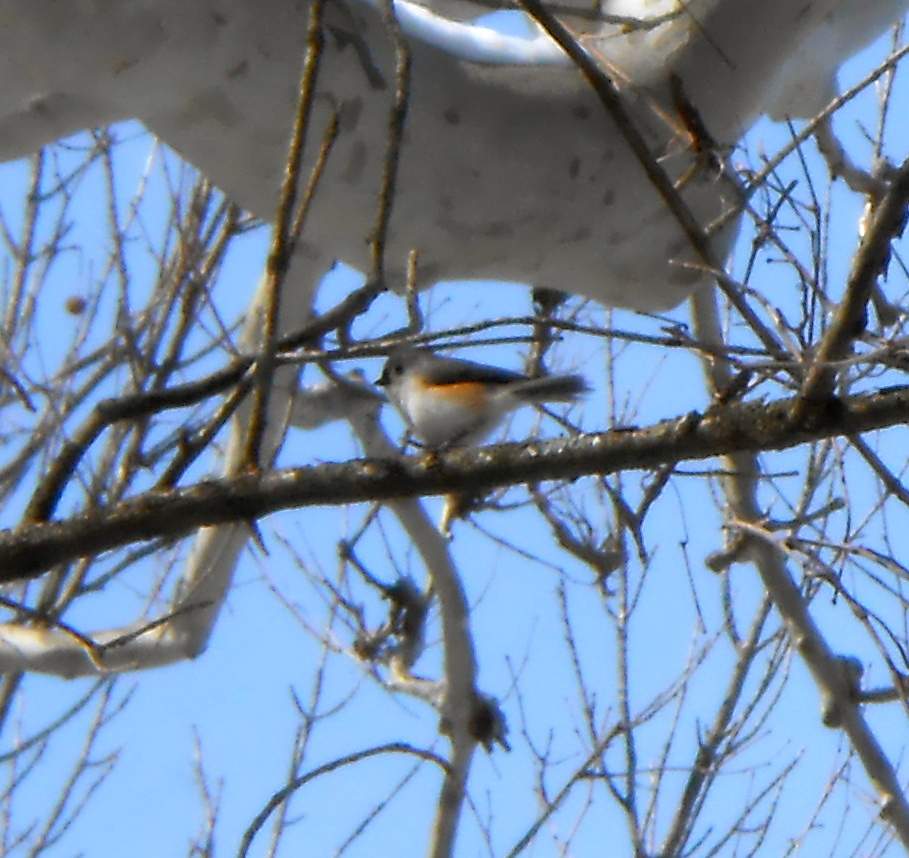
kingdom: Animalia
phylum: Chordata
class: Aves
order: Passeriformes
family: Paridae
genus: Baeolophus
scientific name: Baeolophus bicolor
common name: Tufted titmouse
